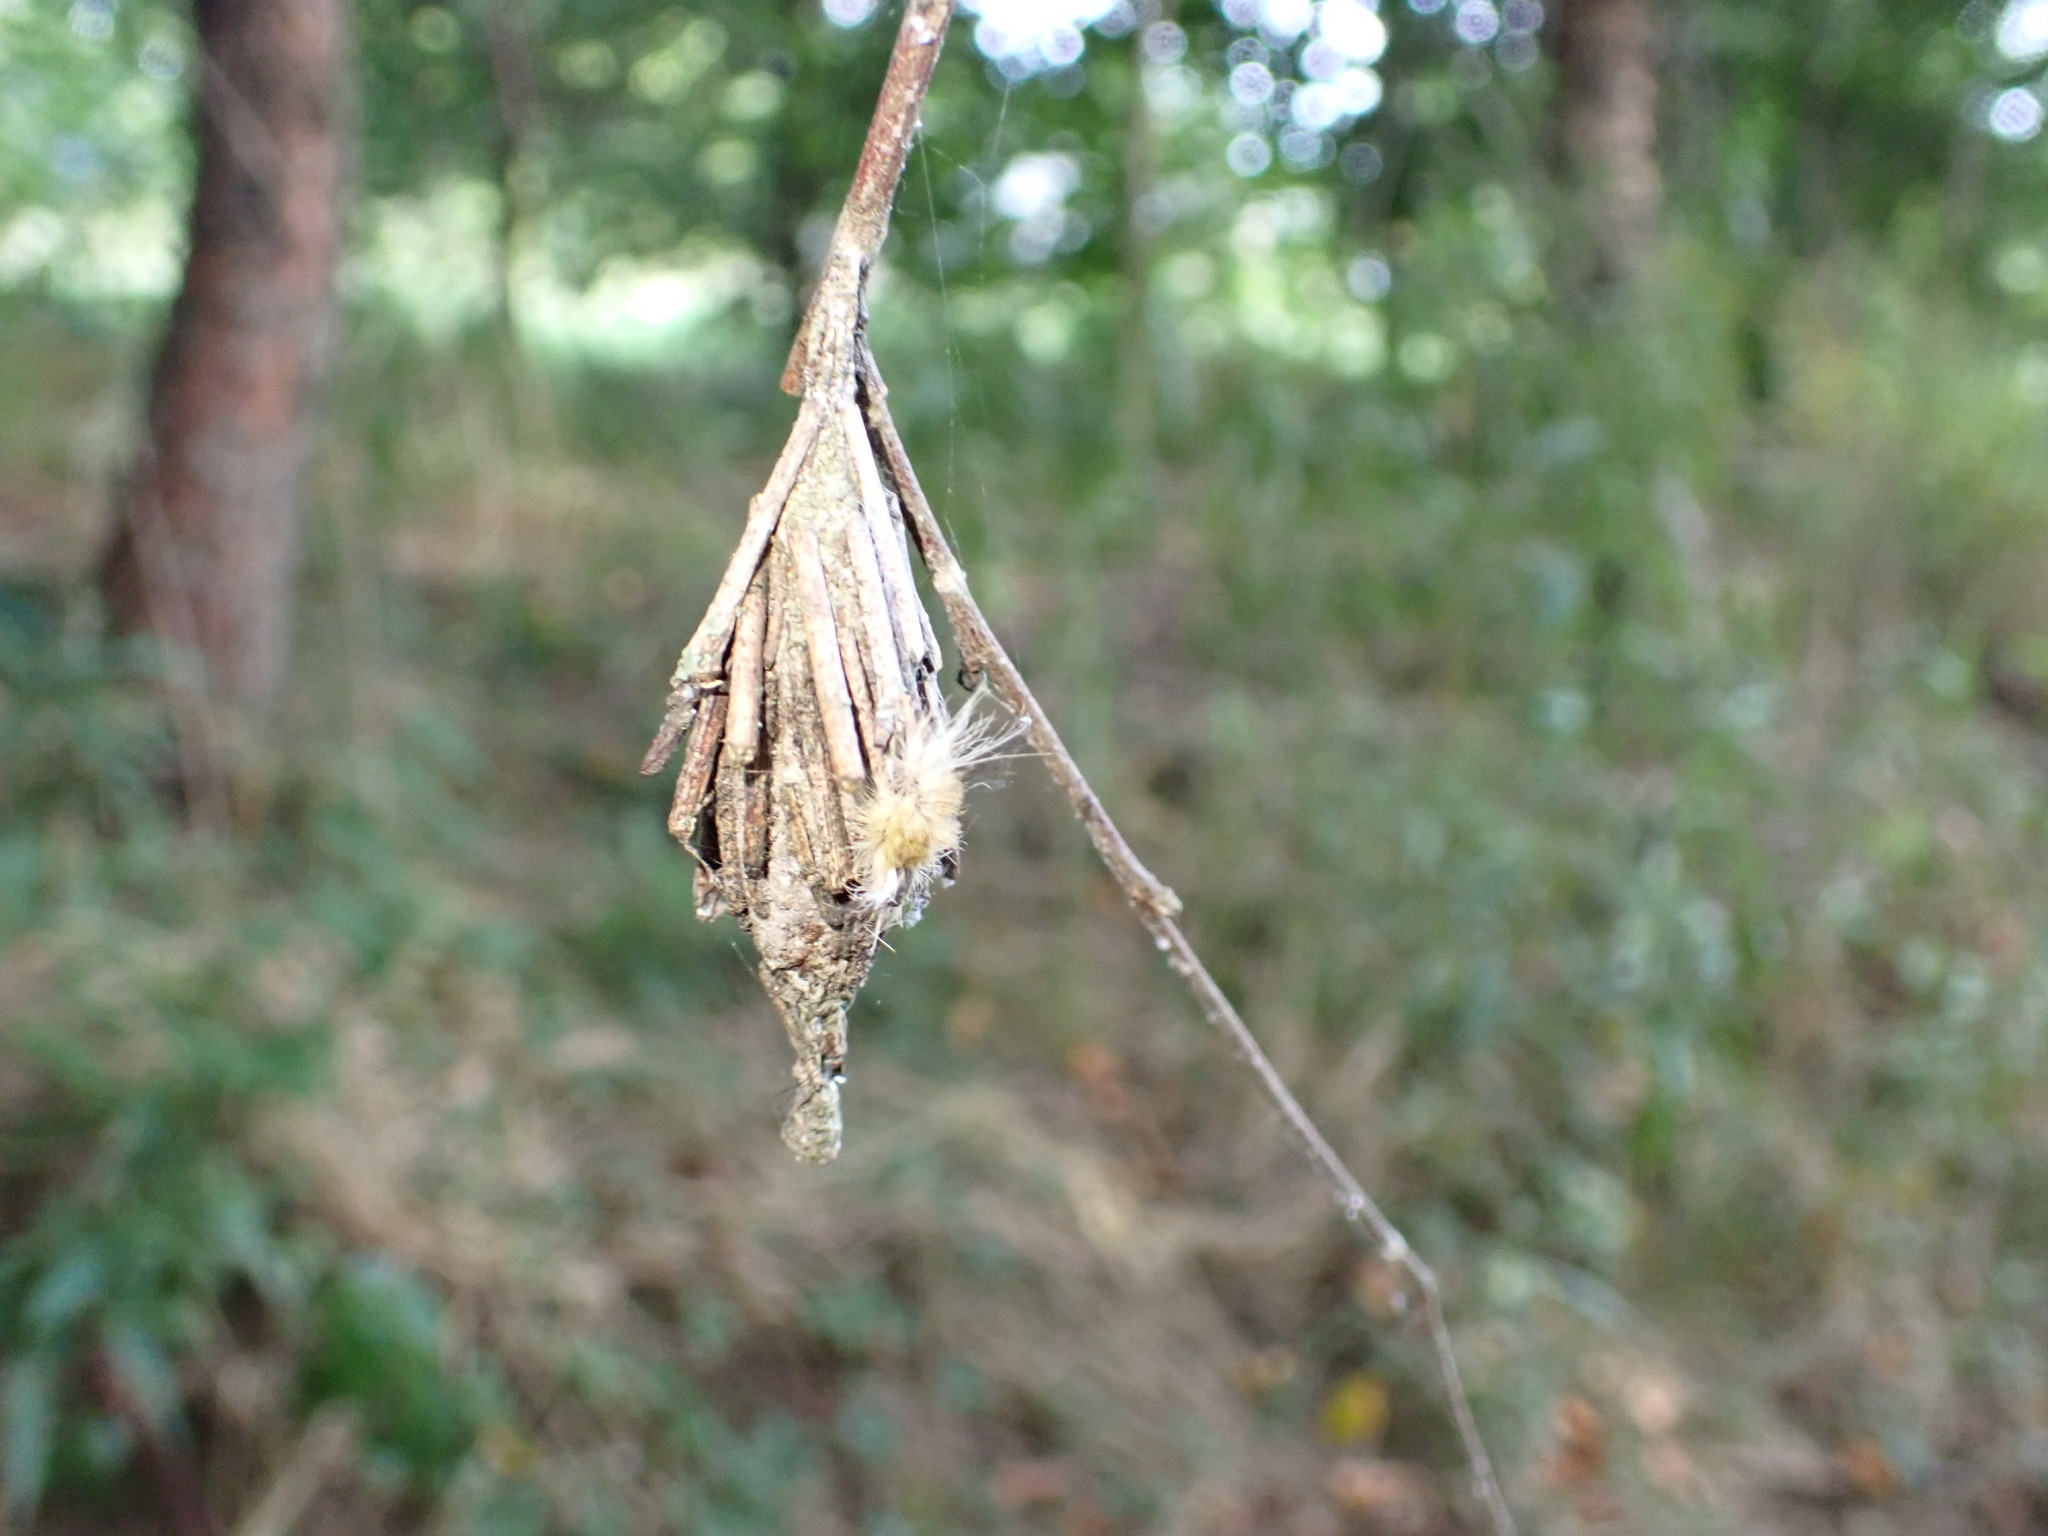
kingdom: Animalia
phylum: Arthropoda
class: Insecta
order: Lepidoptera
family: Psychidae
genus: Thyridopteryx
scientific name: Thyridopteryx ephemeraeformis
